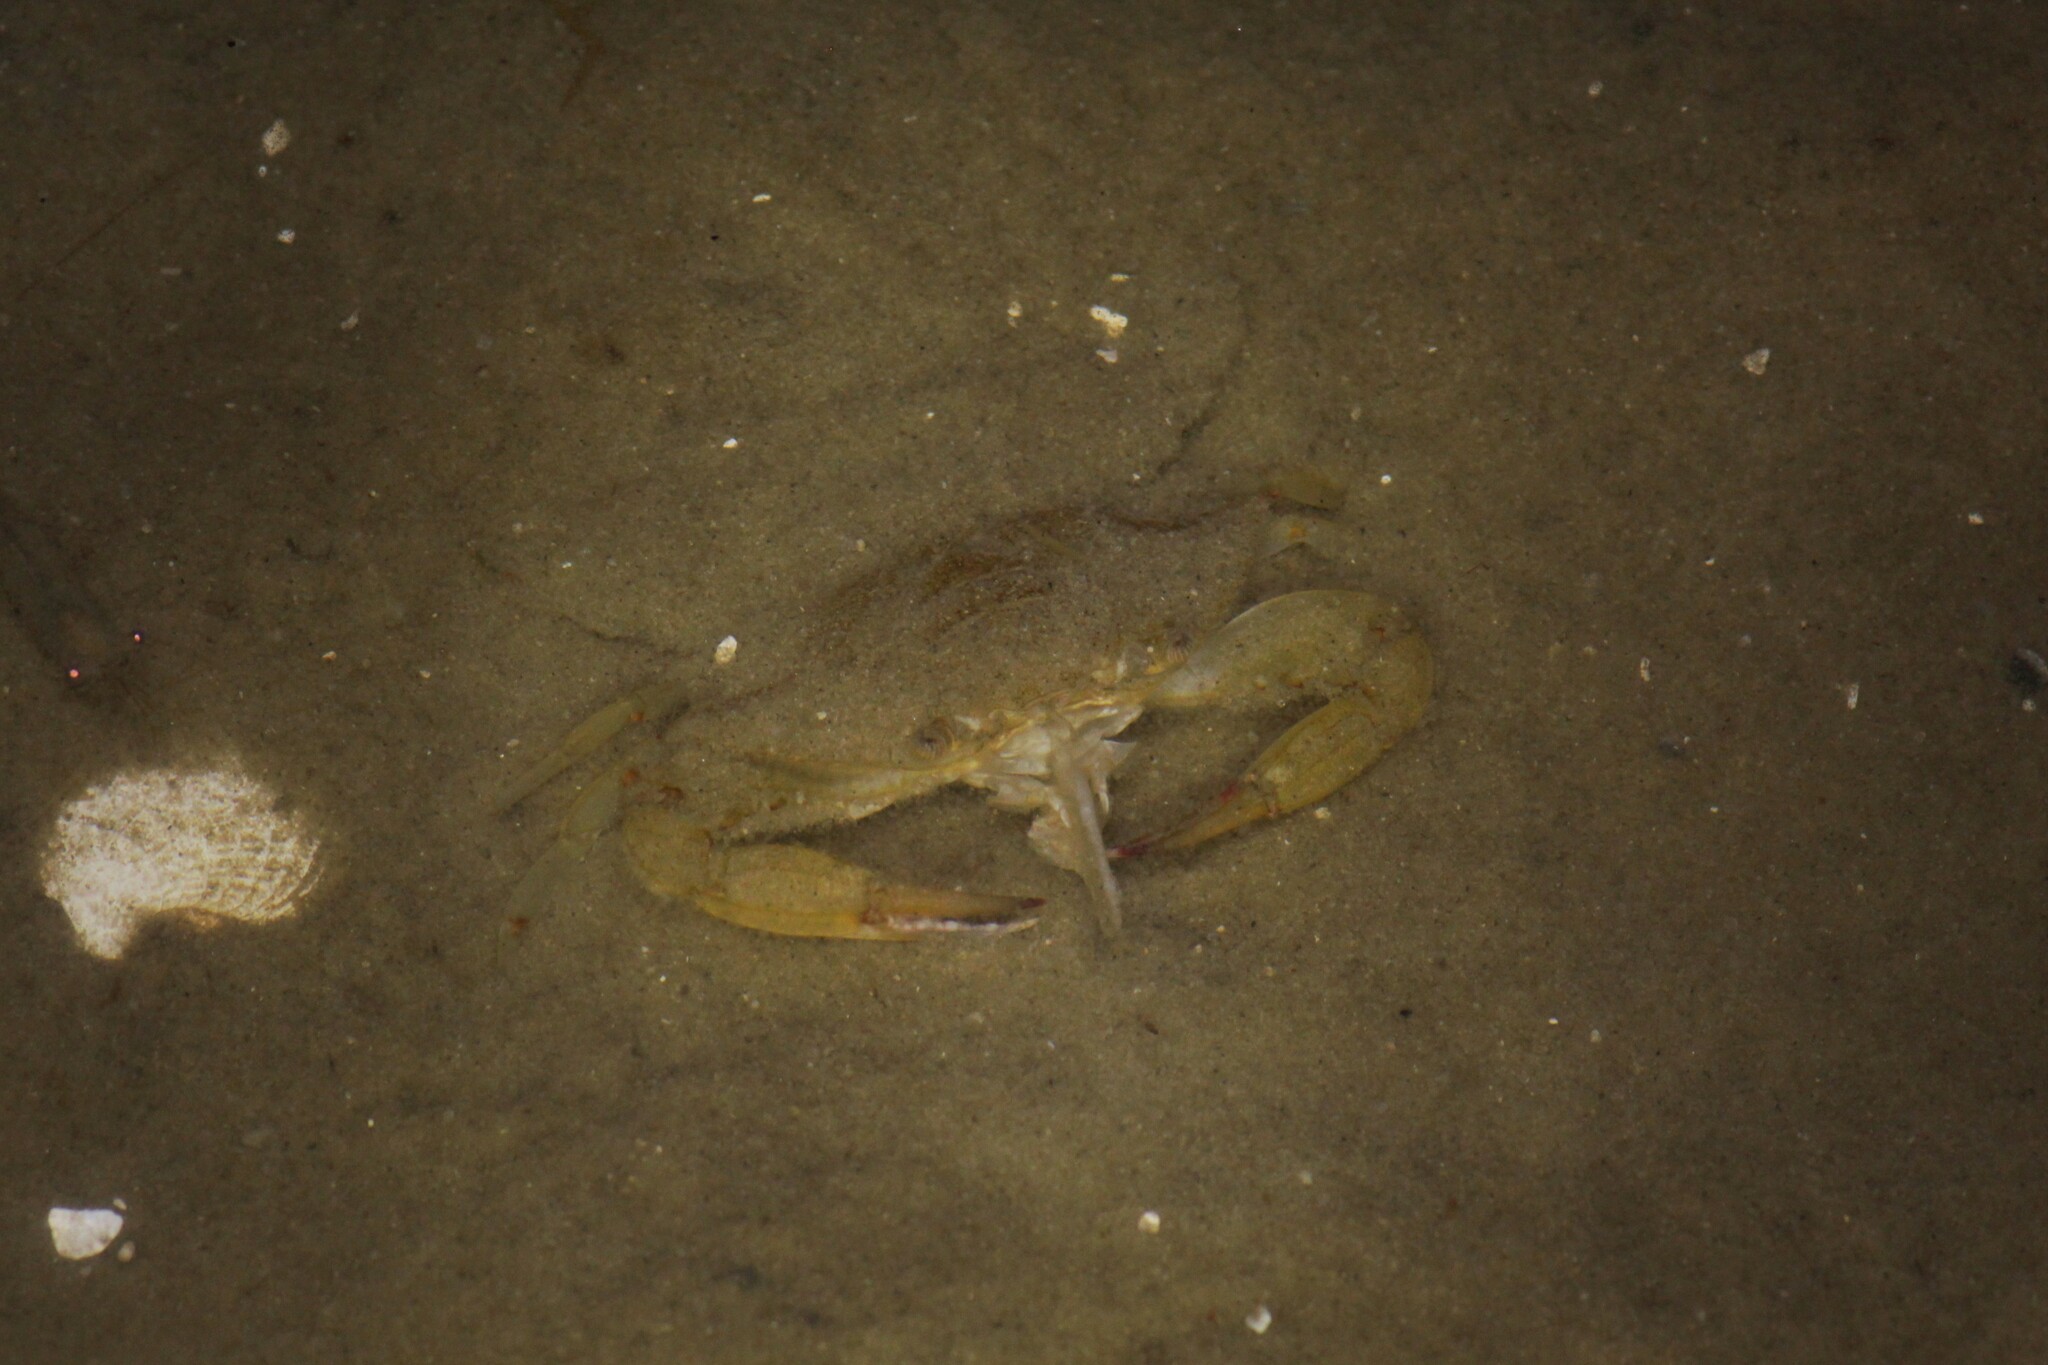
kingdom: Animalia
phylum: Arthropoda
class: Malacostraca
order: Decapoda
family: Portunidae
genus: Callinectes
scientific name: Callinectes sapidus
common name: Blue crab
